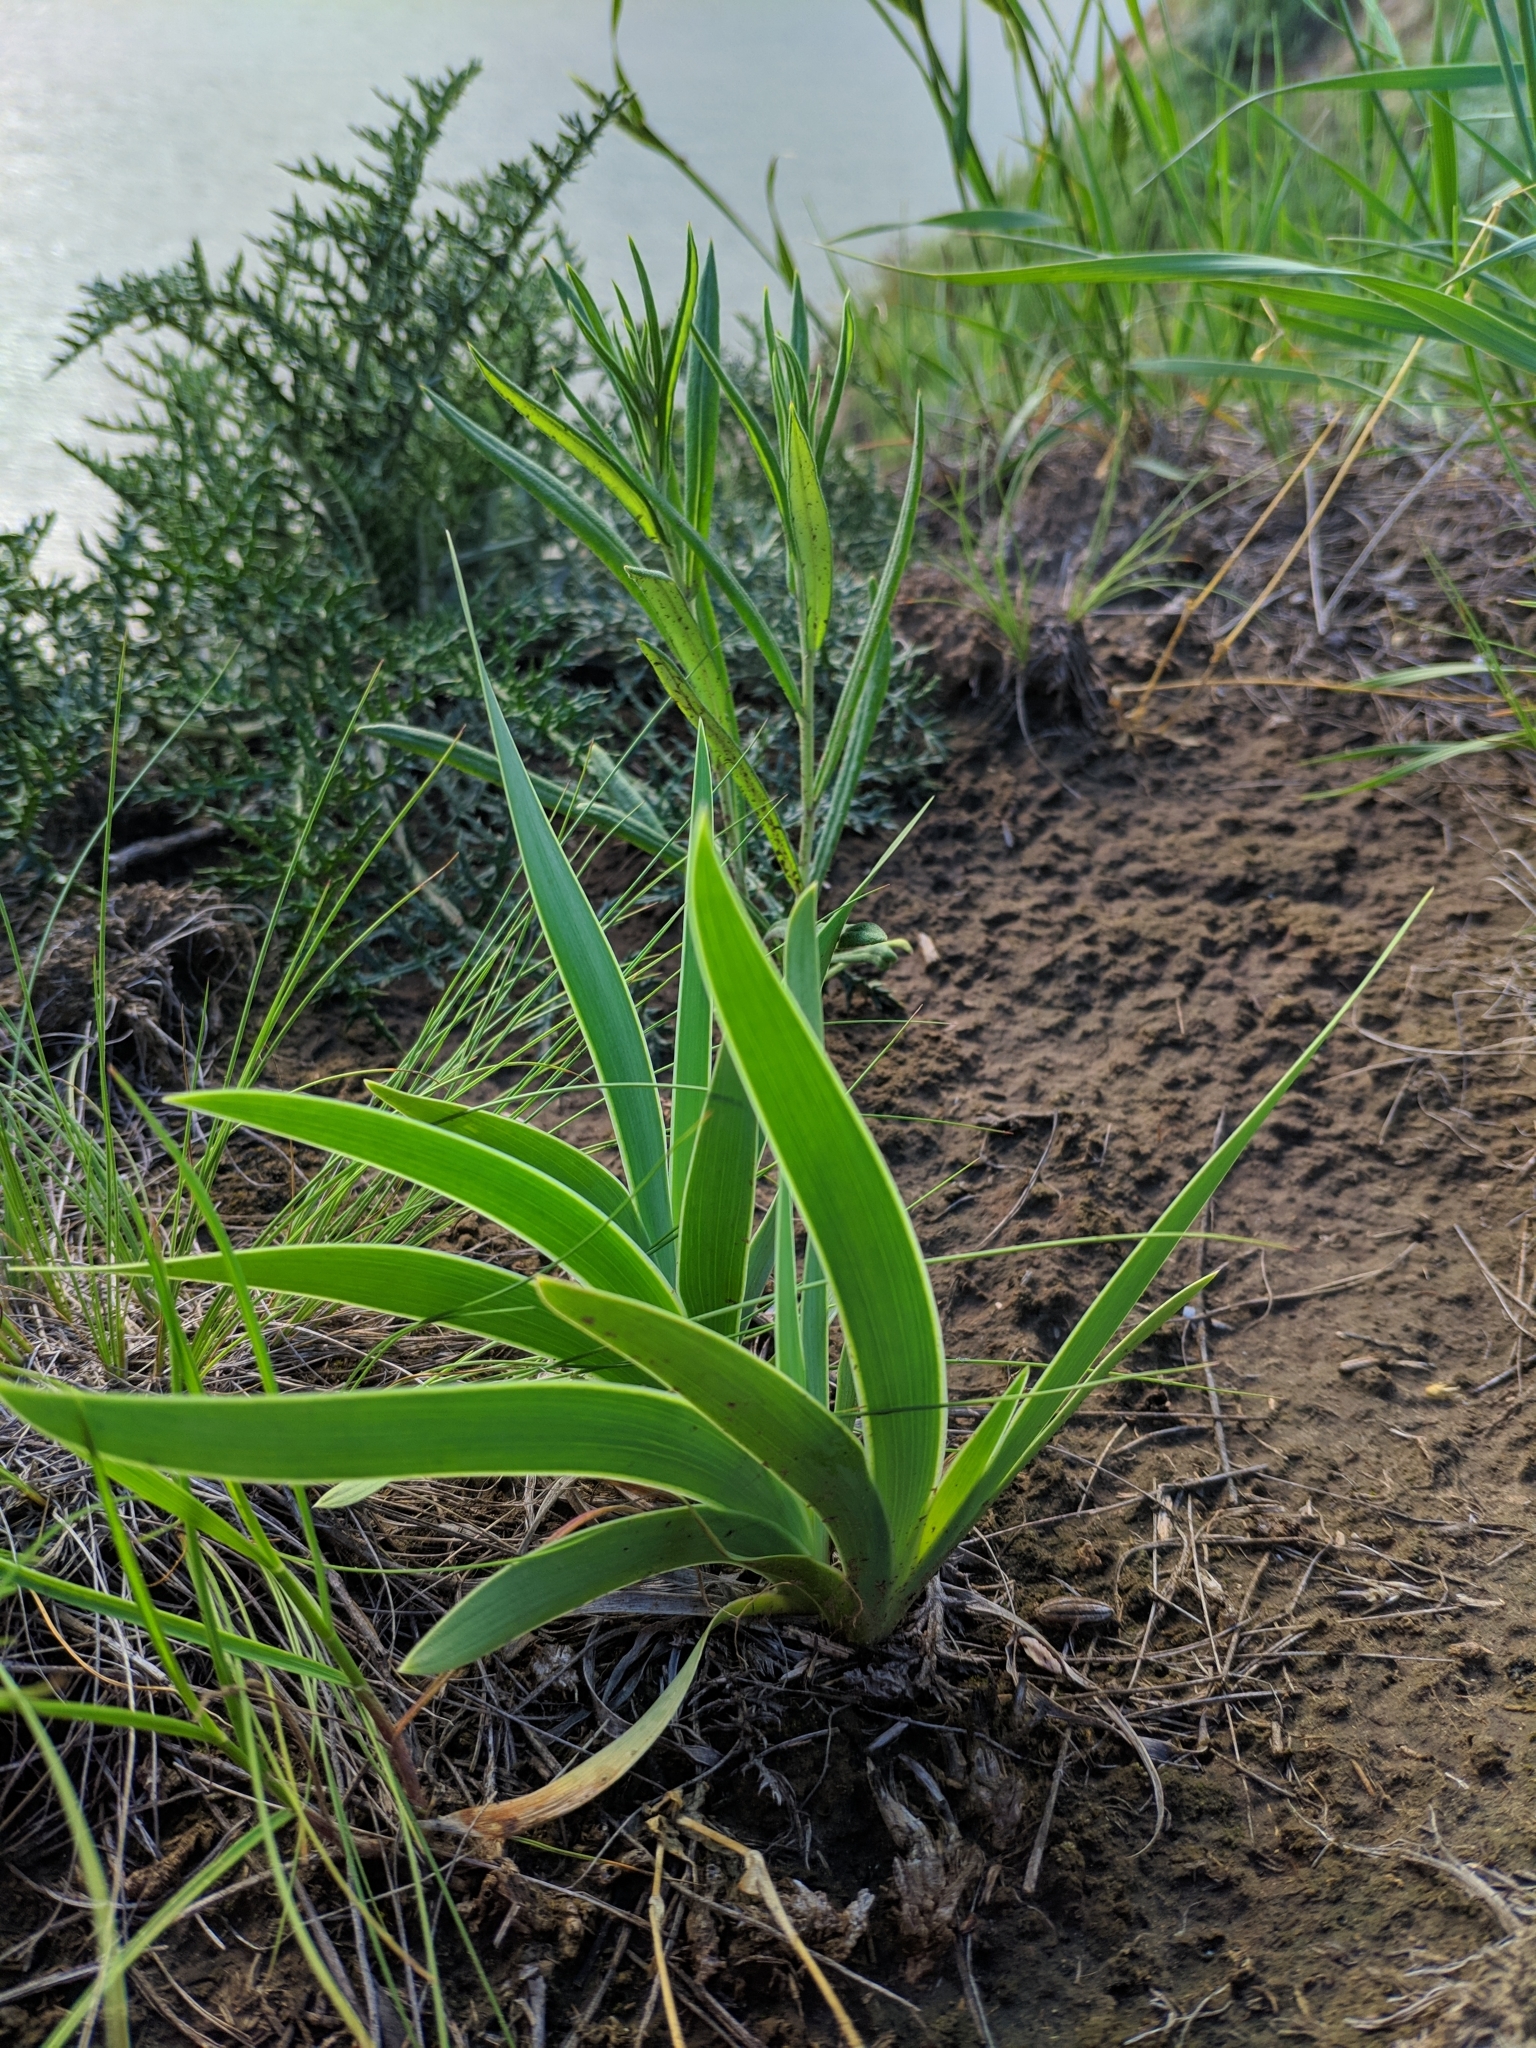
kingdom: Plantae
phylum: Tracheophyta
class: Liliopsida
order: Asparagales
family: Iridaceae
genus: Iris
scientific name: Iris pumila
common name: Dwarf iris
